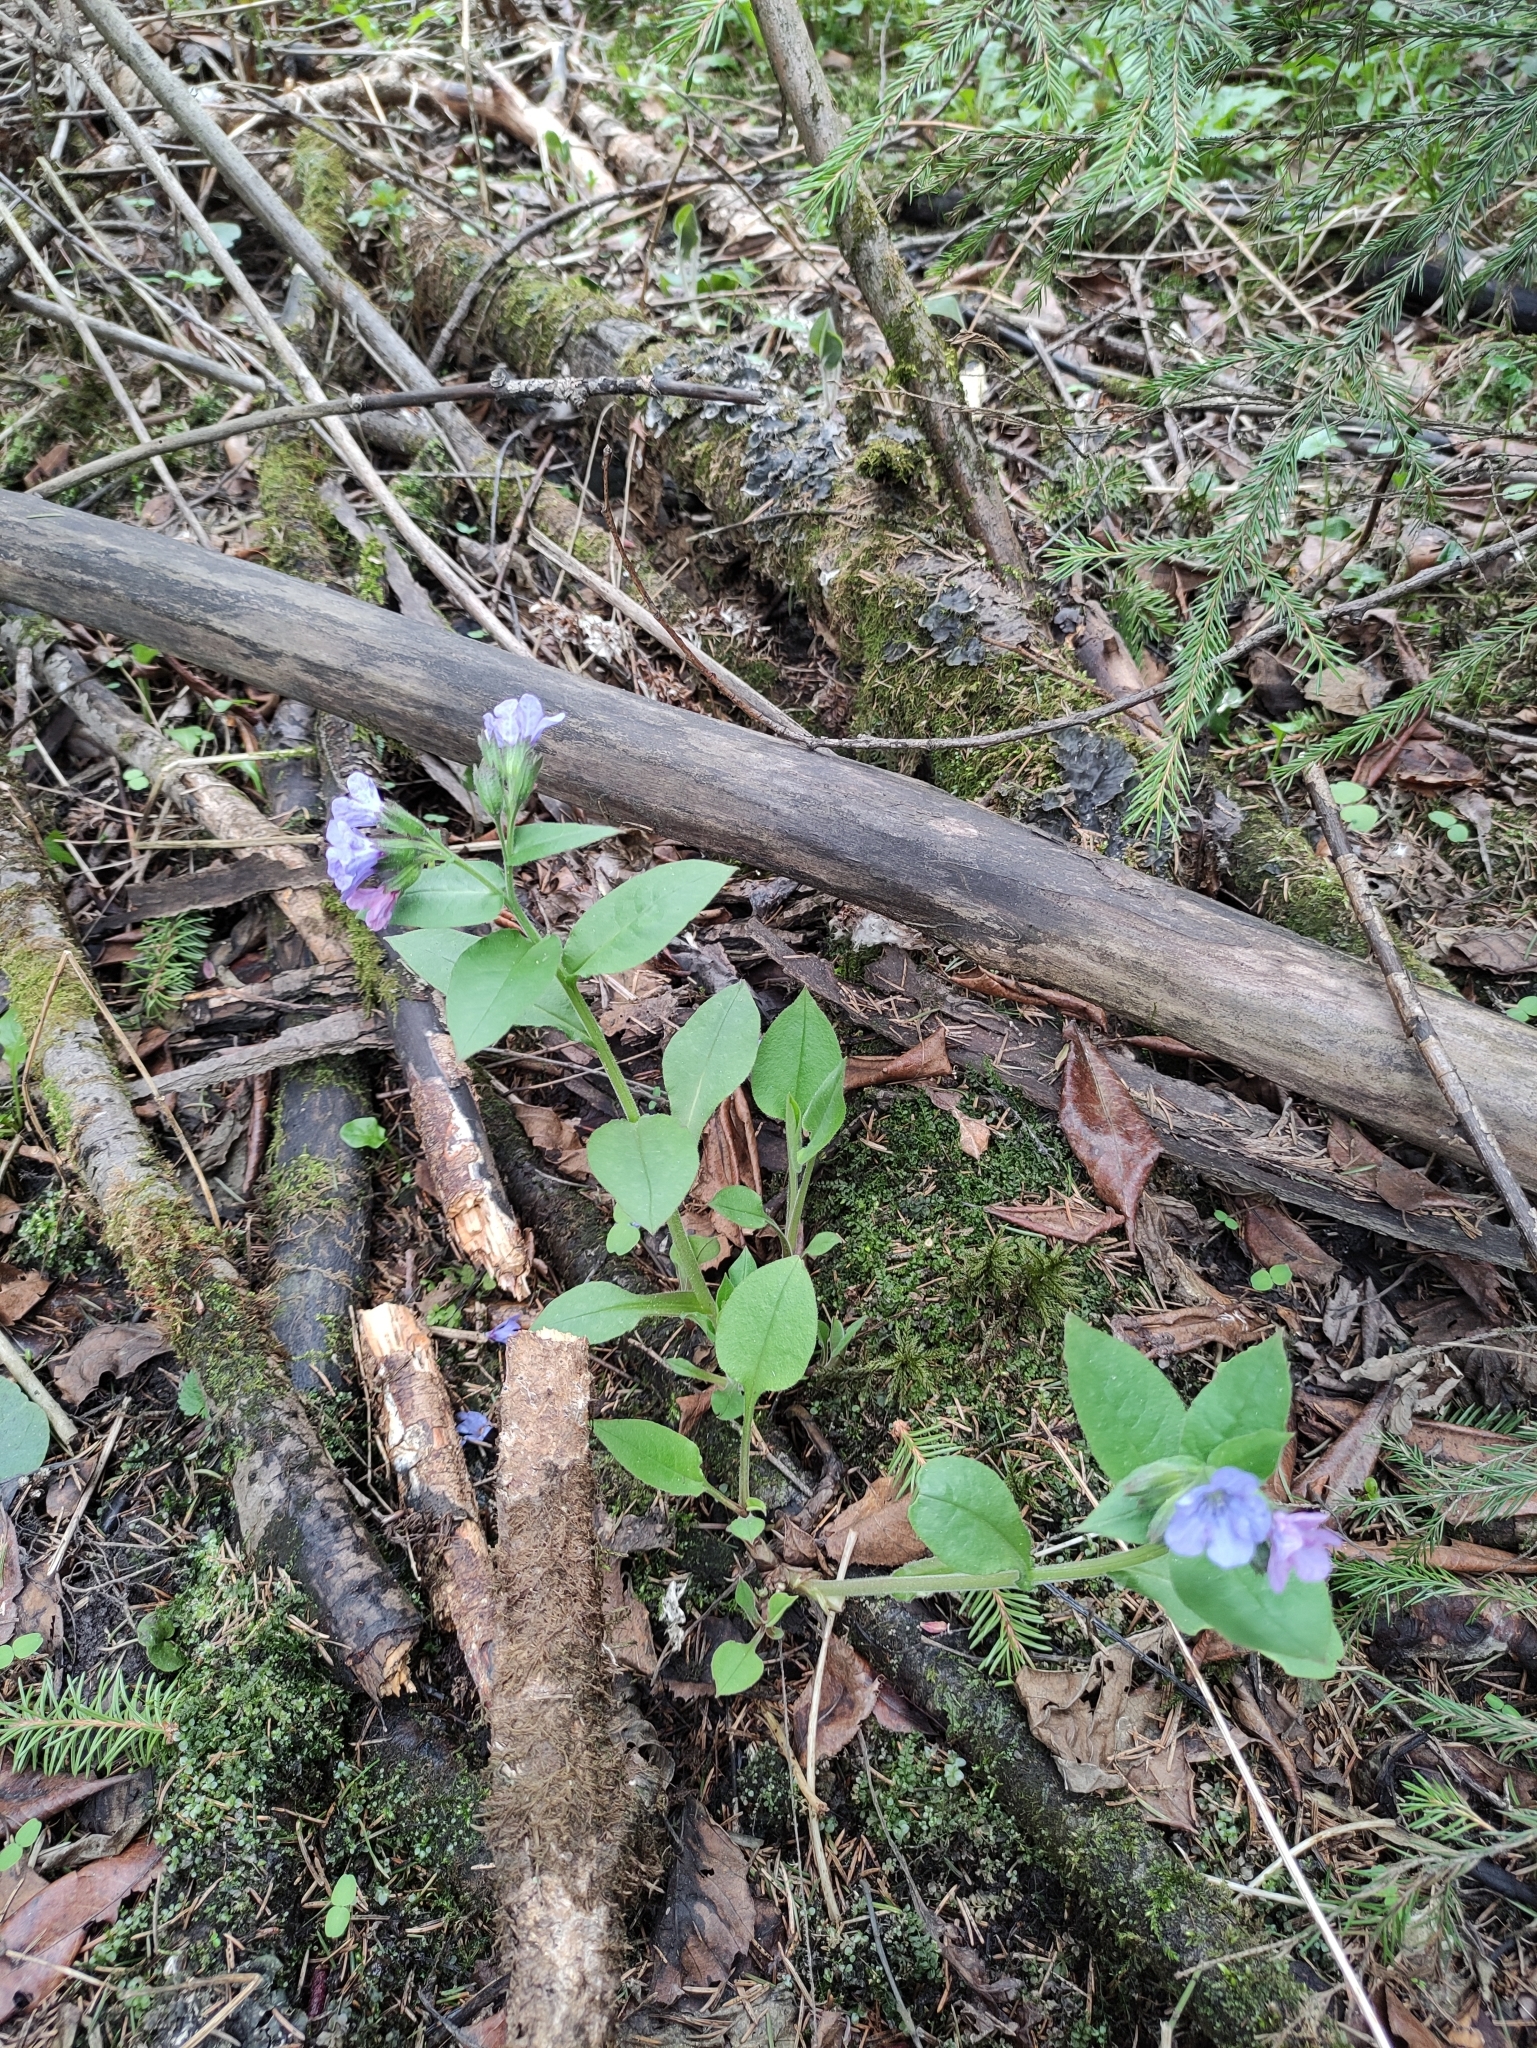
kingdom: Plantae
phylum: Tracheophyta
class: Magnoliopsida
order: Boraginales
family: Boraginaceae
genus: Pulmonaria
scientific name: Pulmonaria obscura
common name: Suffolk lungwort
